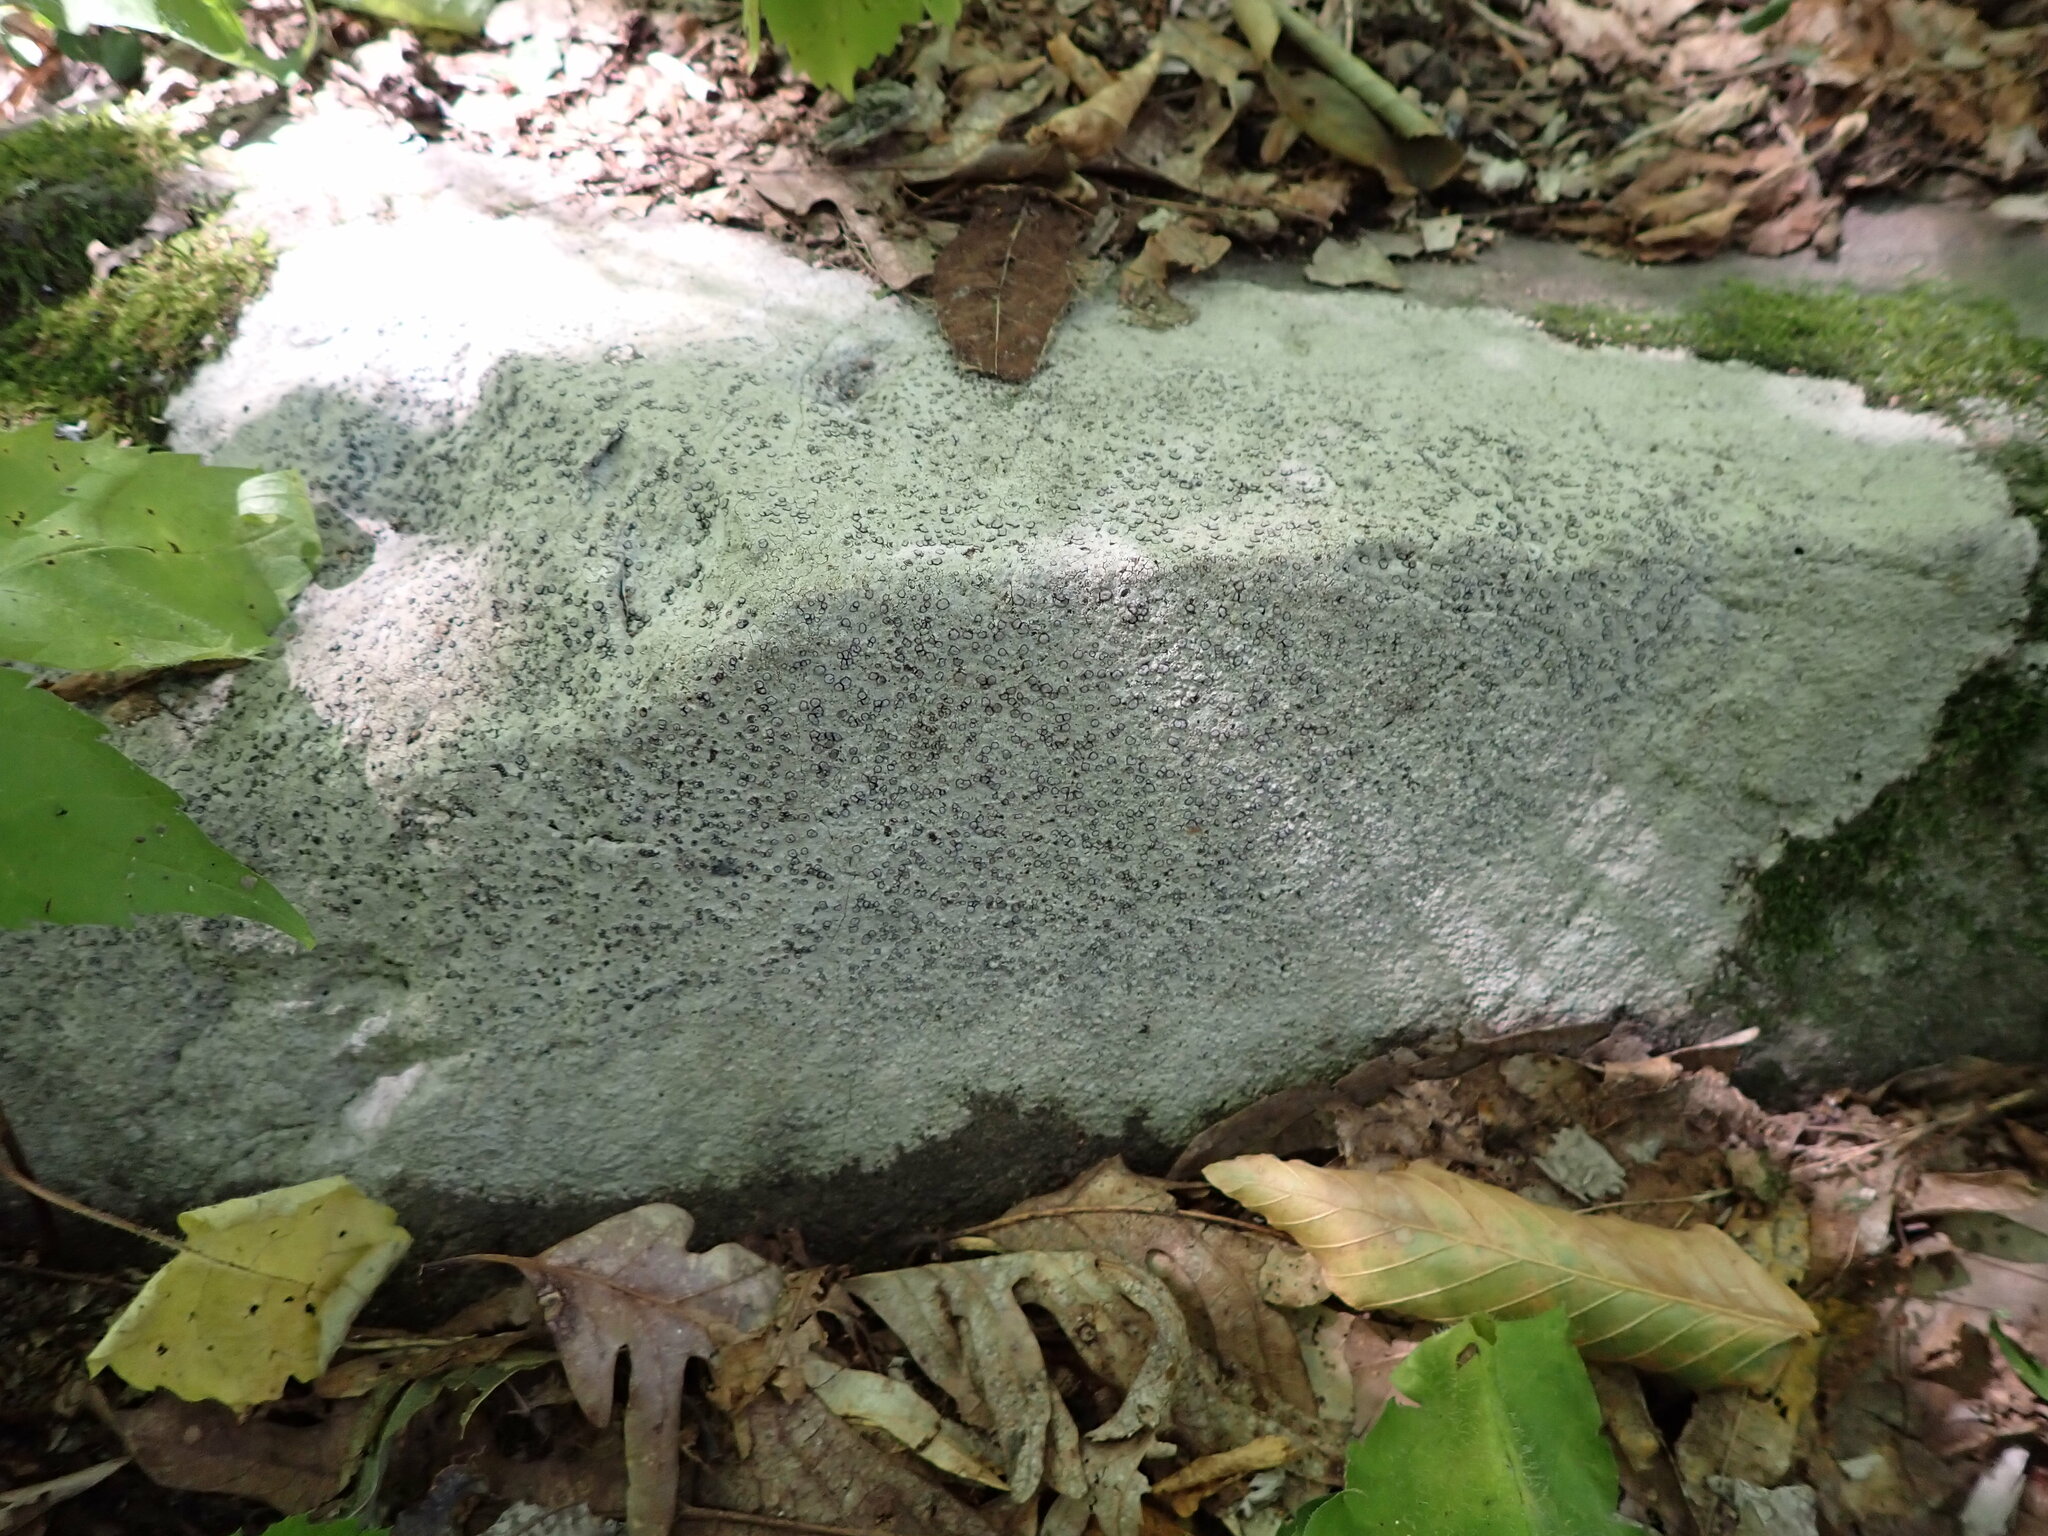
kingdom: Fungi
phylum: Ascomycota
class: Lecanoromycetes
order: Lecideales
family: Lecideaceae
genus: Porpidia
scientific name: Porpidia albocaerulescens
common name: Smokey-eyed boulder lichen
